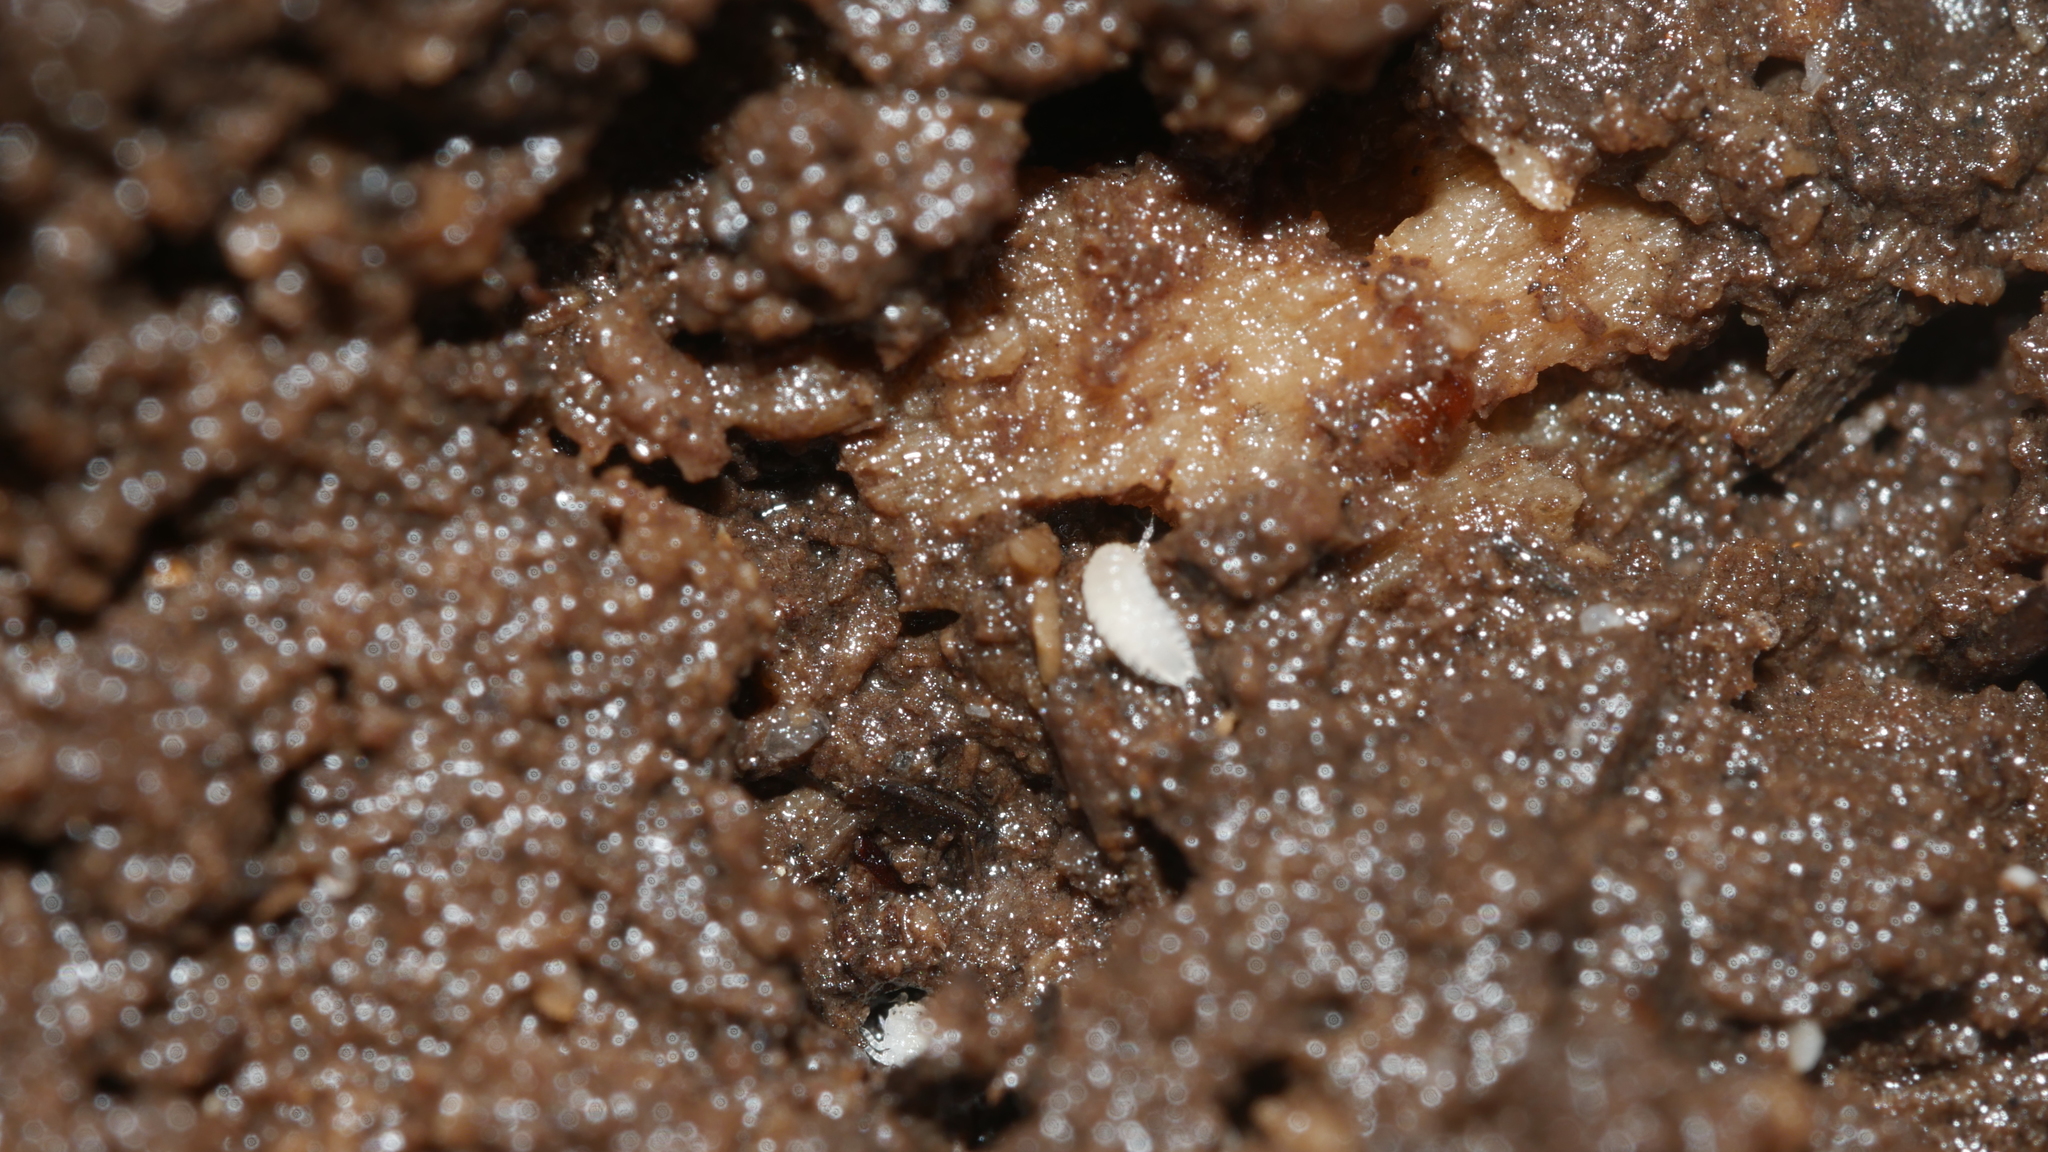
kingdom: Animalia
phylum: Arthropoda
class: Malacostraca
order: Isopoda
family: Trichoniscidae
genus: Haplophthalmus
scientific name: Haplophthalmus danicus
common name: Pillbug
